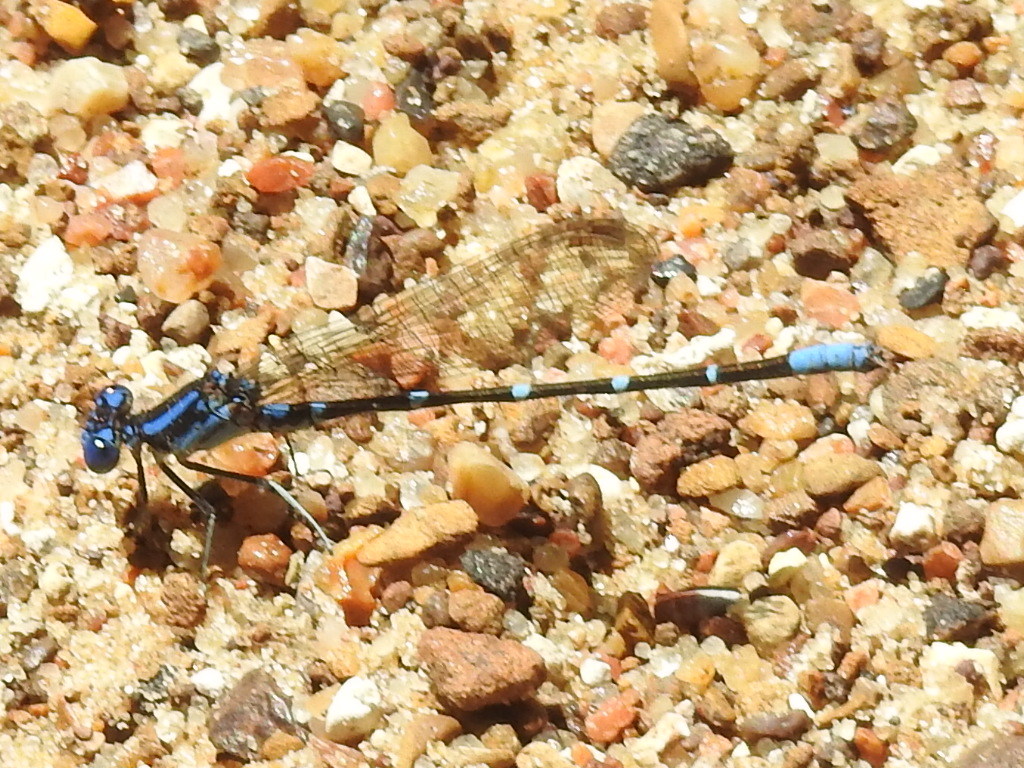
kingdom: Animalia
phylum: Arthropoda
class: Insecta
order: Odonata
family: Coenagrionidae
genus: Argia
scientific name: Argia sedula
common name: Blue-ringed dancer
